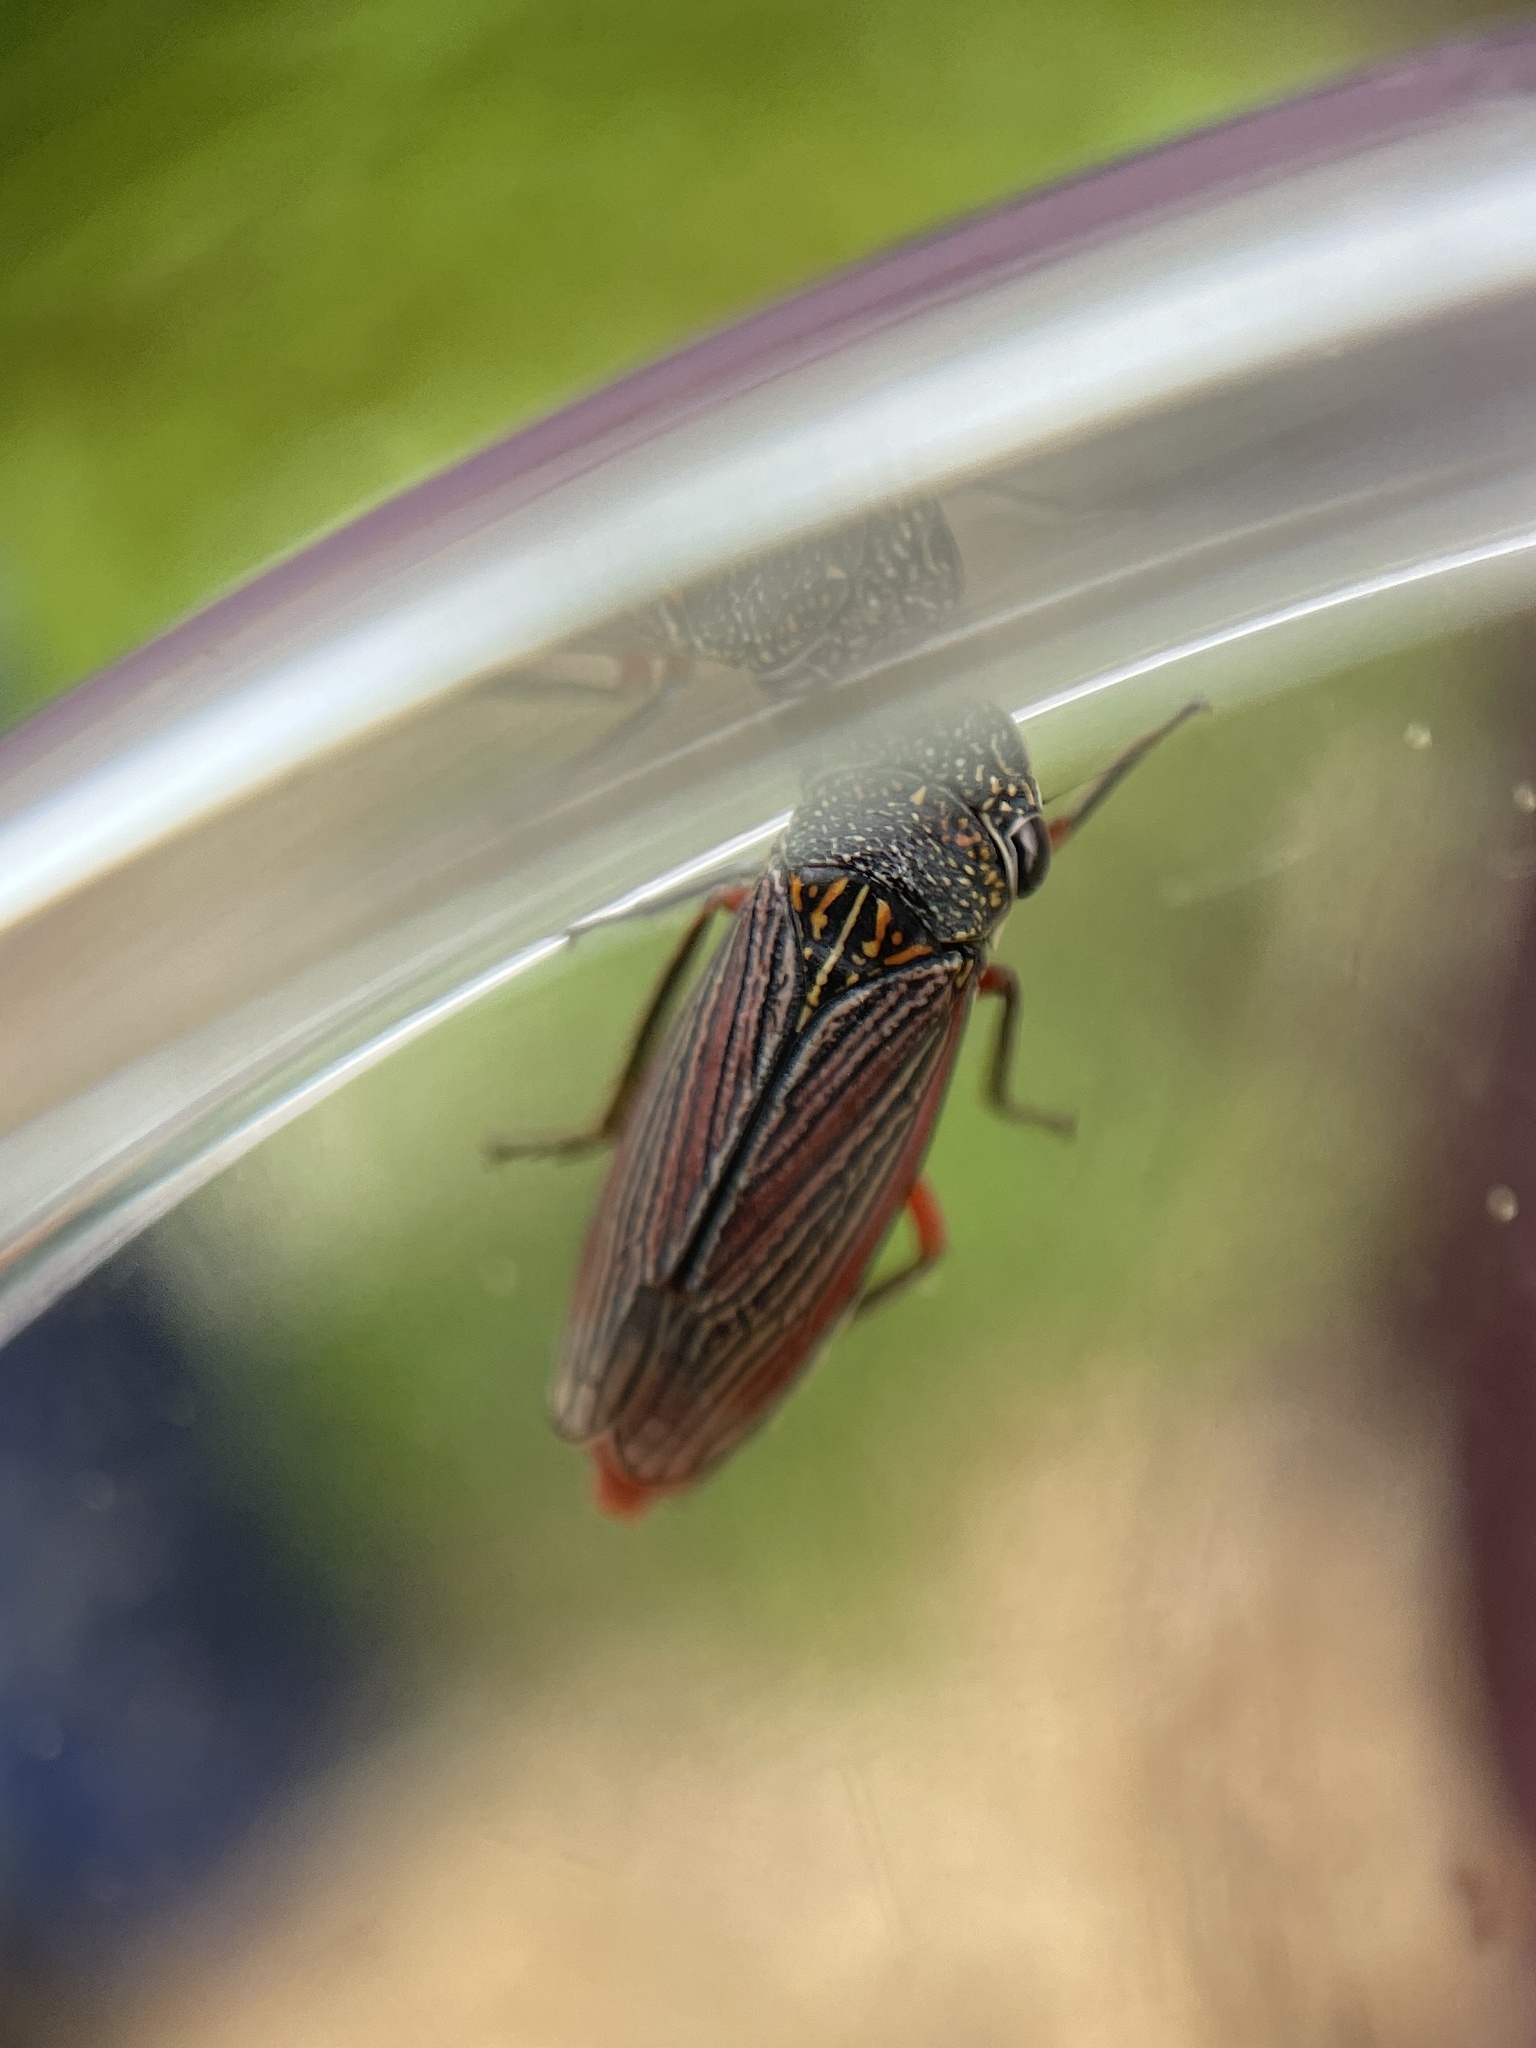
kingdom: Animalia
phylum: Arthropoda
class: Insecta
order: Hemiptera
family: Cicadellidae
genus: Cuerna
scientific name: Cuerna costalis
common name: Lateral-lined sharpshooter
